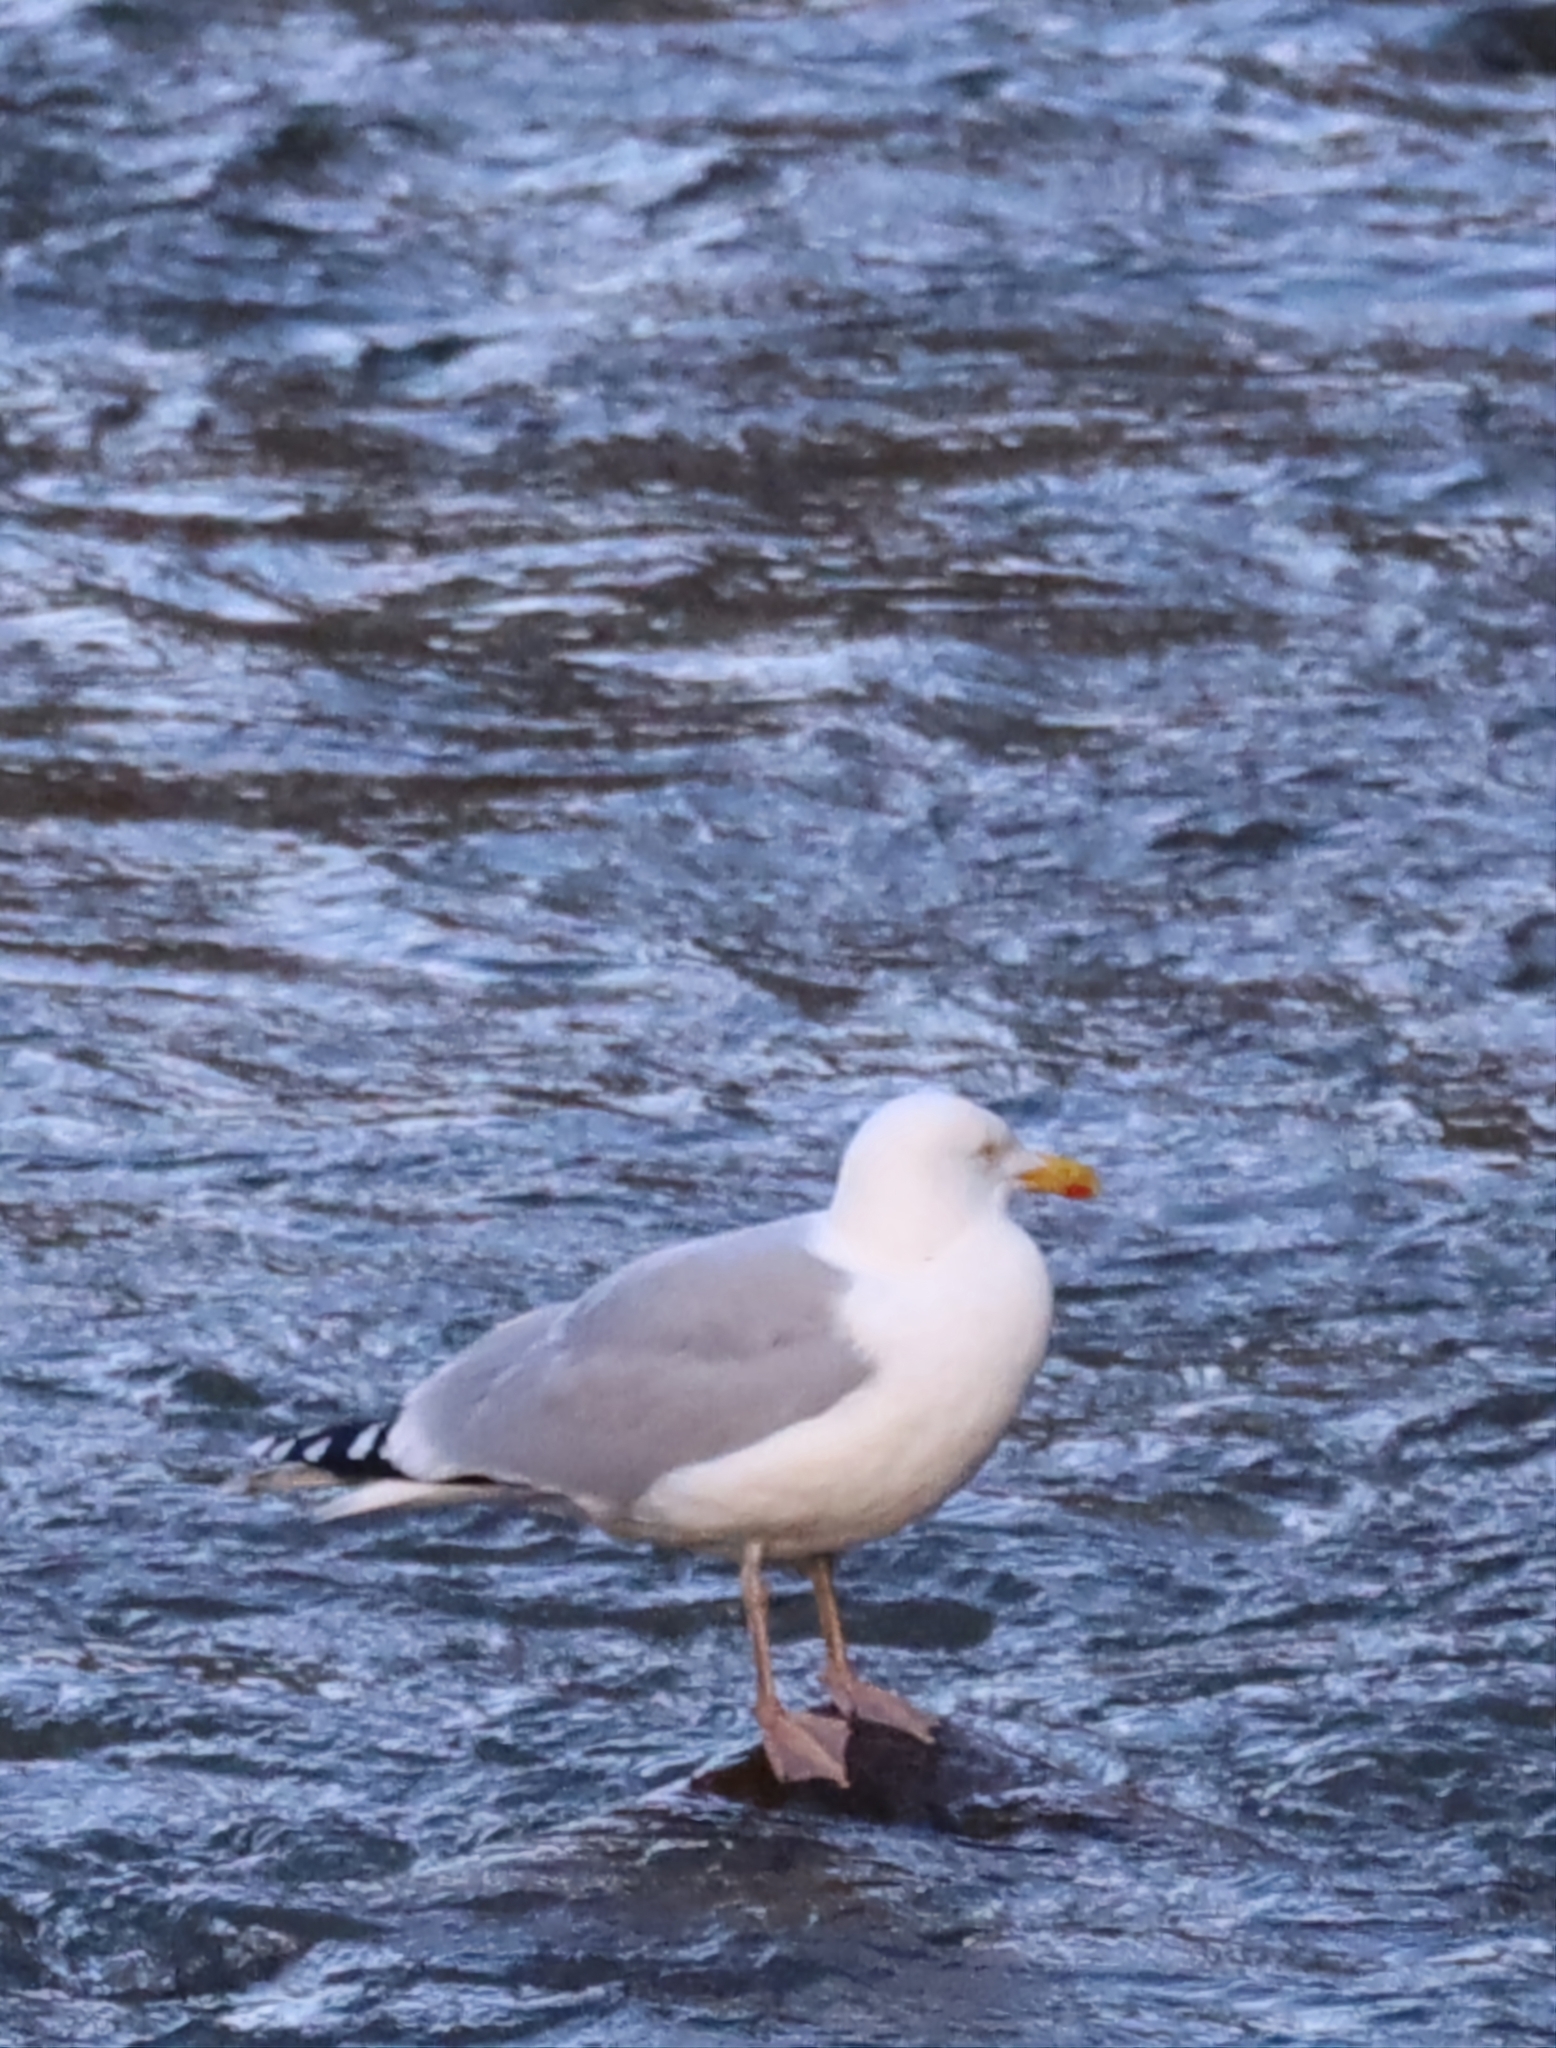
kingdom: Animalia
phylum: Chordata
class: Aves
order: Charadriiformes
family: Laridae
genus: Larus
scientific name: Larus argentatus
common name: Herring gull
